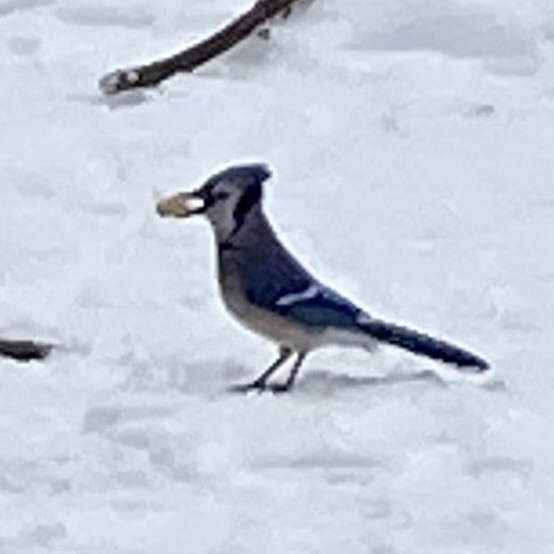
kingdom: Animalia
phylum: Chordata
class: Aves
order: Passeriformes
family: Corvidae
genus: Cyanocitta
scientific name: Cyanocitta cristata
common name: Blue jay
